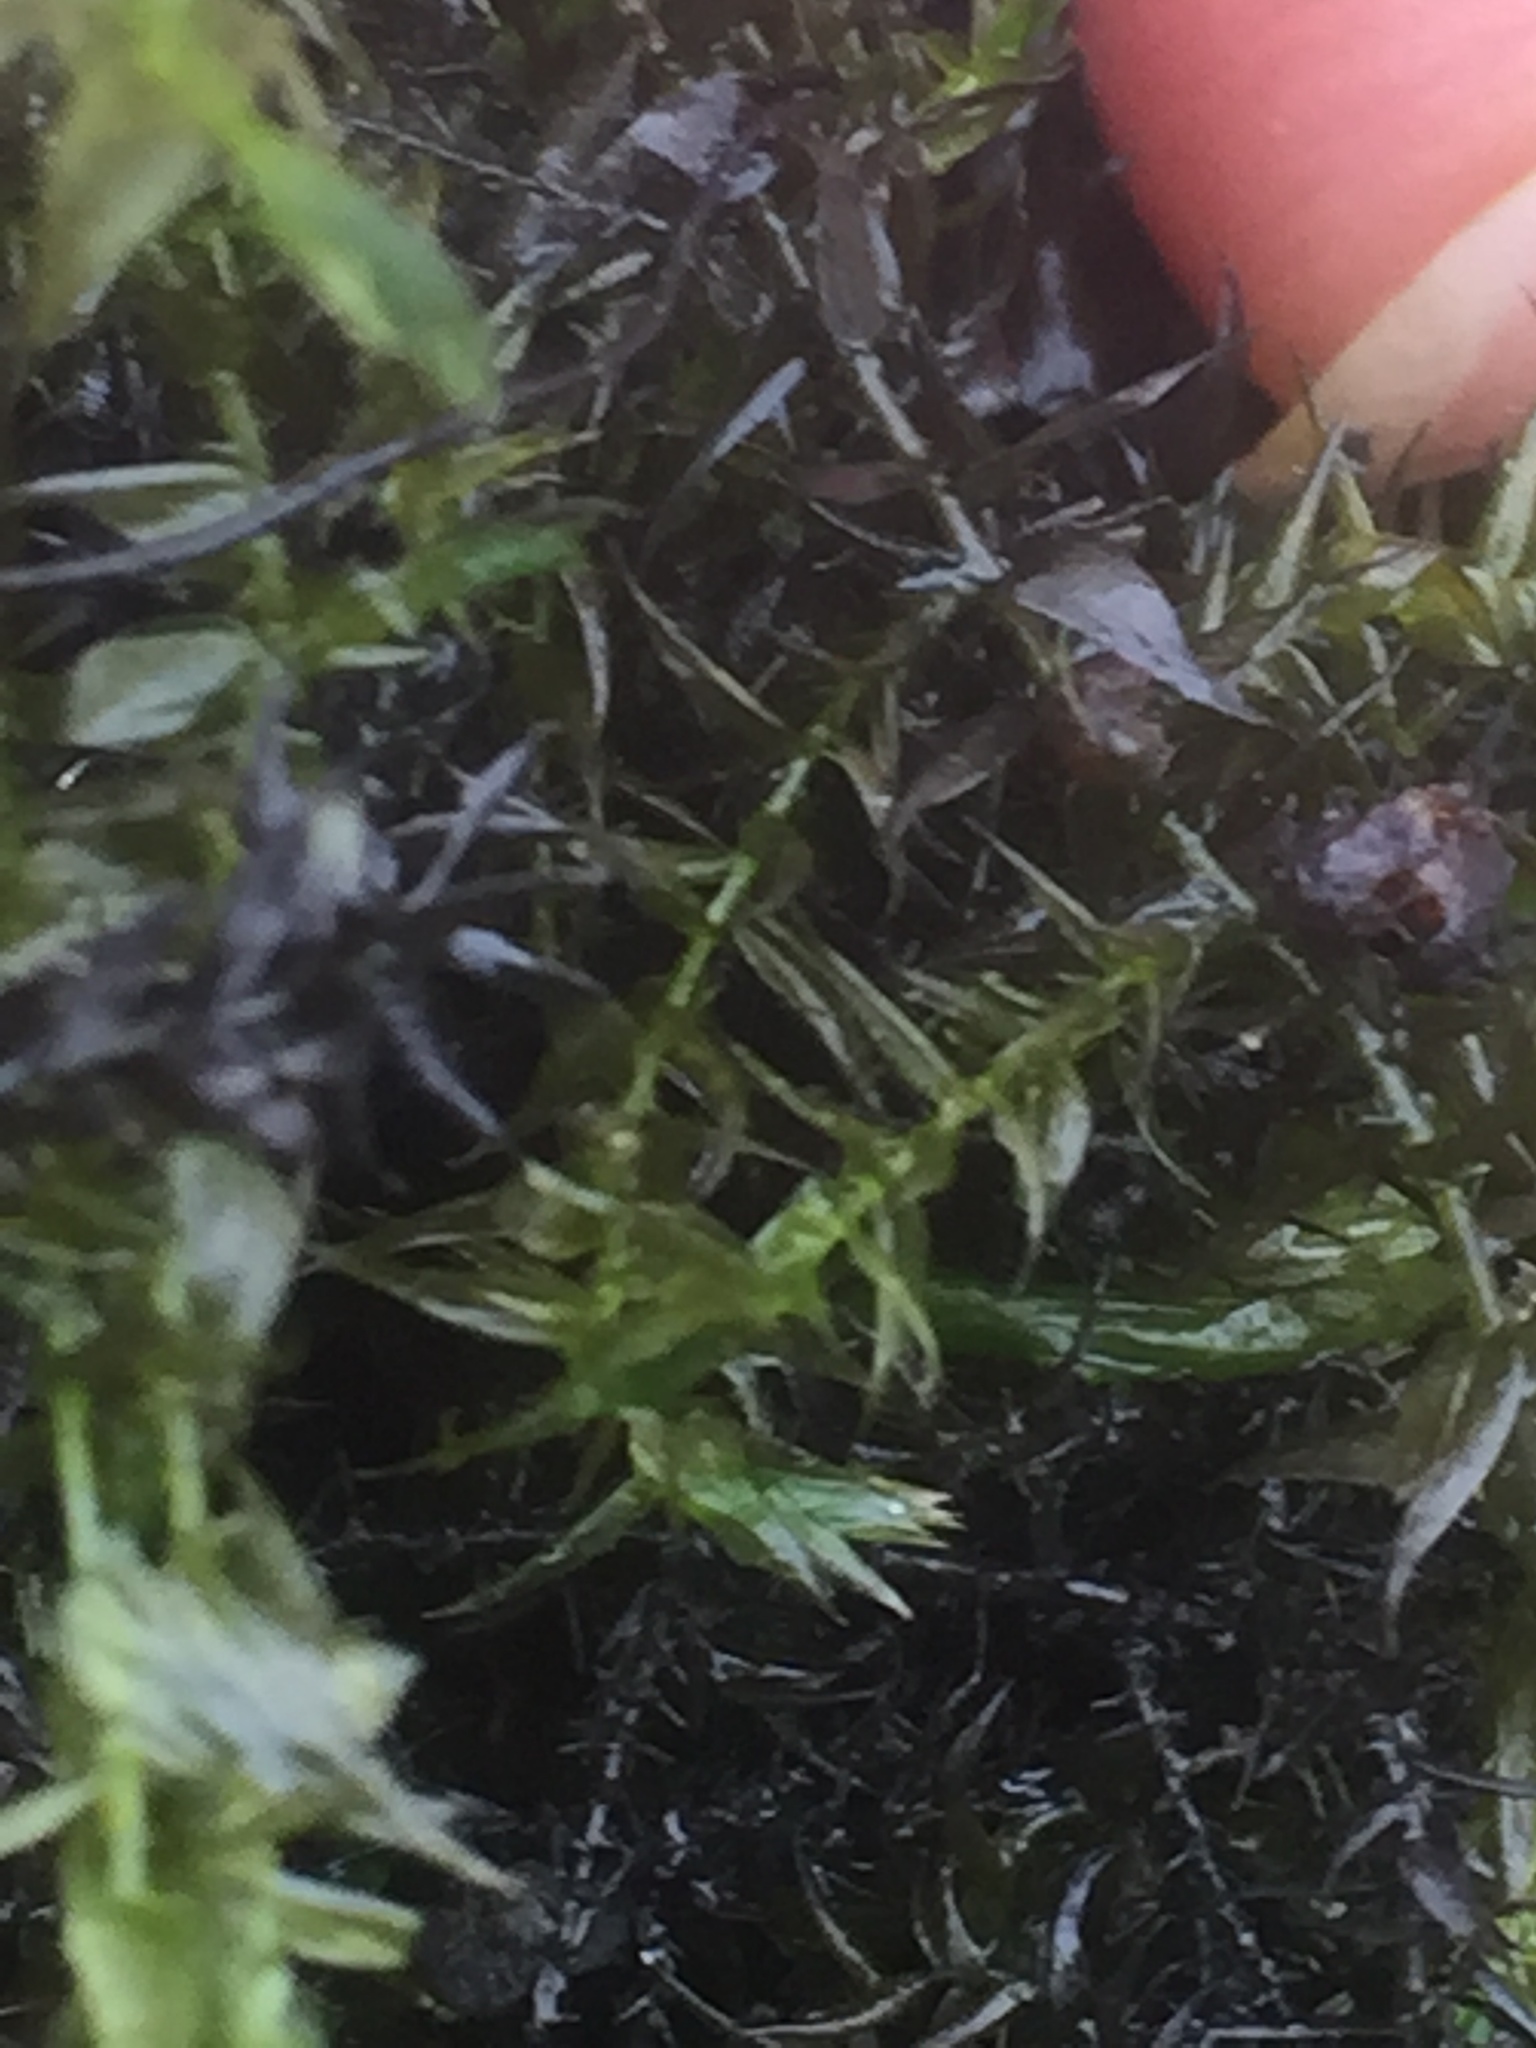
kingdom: Plantae
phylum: Bryophyta
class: Bryopsida
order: Hypnales
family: Amblystegiaceae
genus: Leptodictyum
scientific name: Leptodictyum riparium
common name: Riparian feather moss
